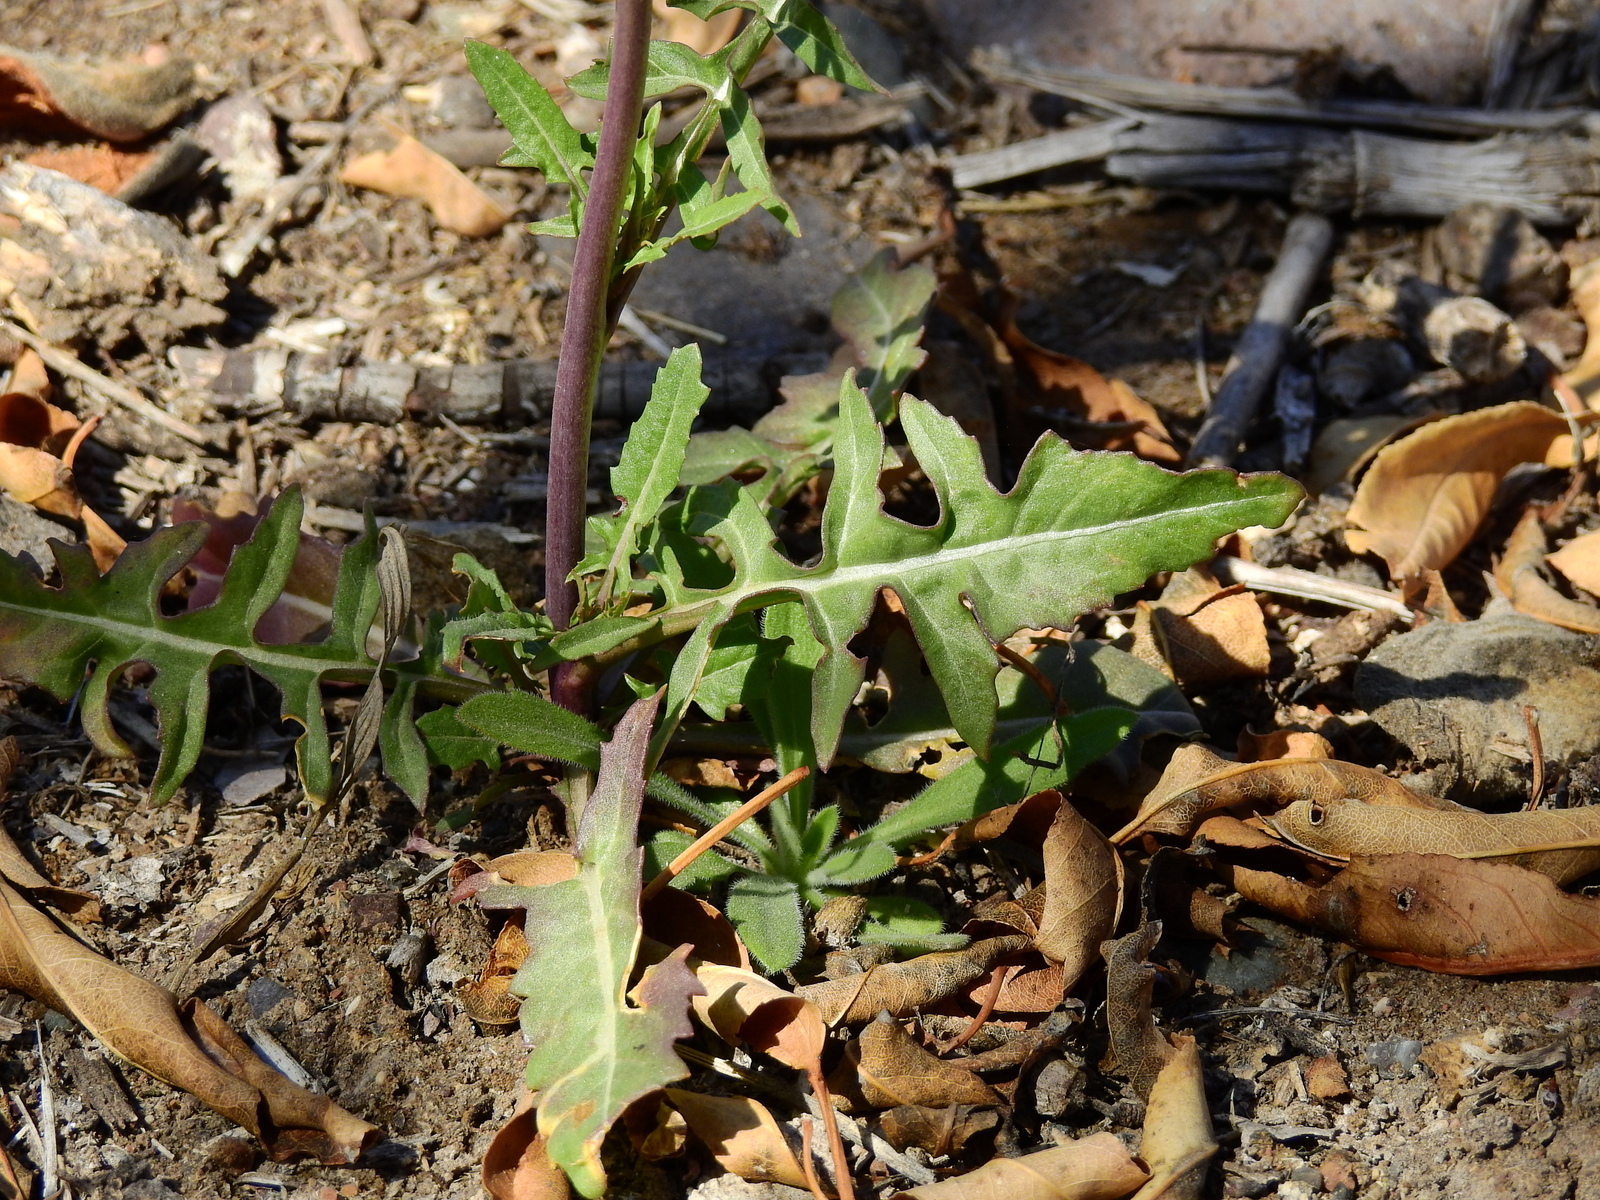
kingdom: Plantae
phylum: Tracheophyta
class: Magnoliopsida
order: Brassicales
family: Brassicaceae
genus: Sisymbrium
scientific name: Sisymbrium irio
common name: London rocket
